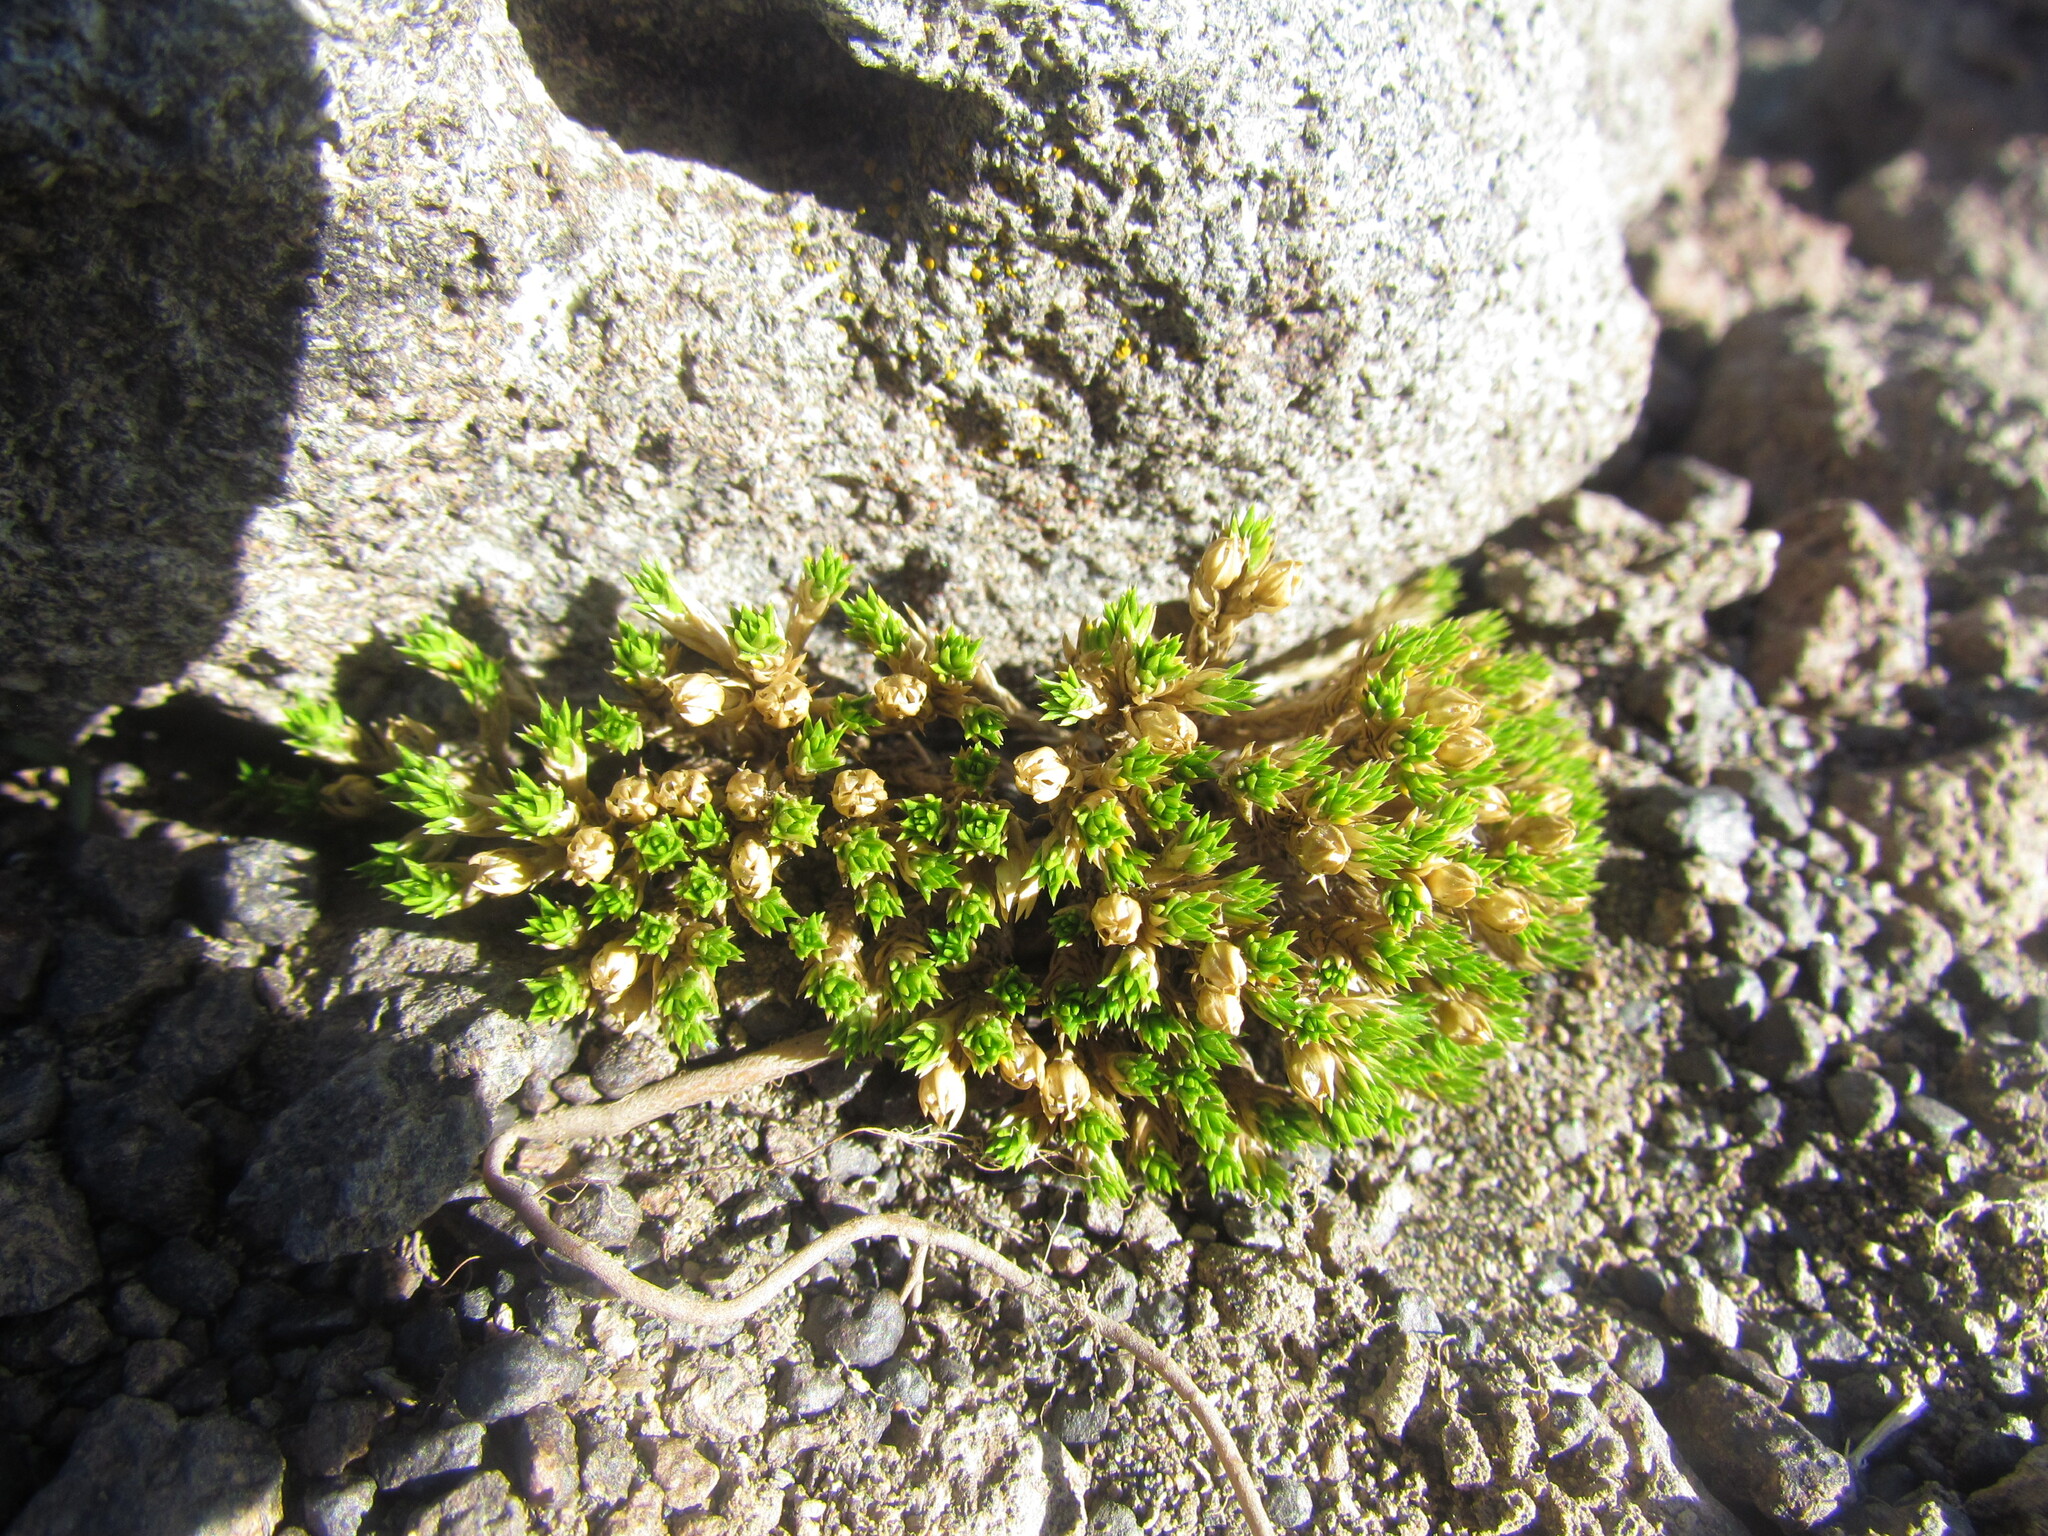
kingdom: Plantae
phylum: Tracheophyta
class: Magnoliopsida
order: Caryophyllales
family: Caryophyllaceae
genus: Colobanthus
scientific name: Colobanthus lycopodioides
